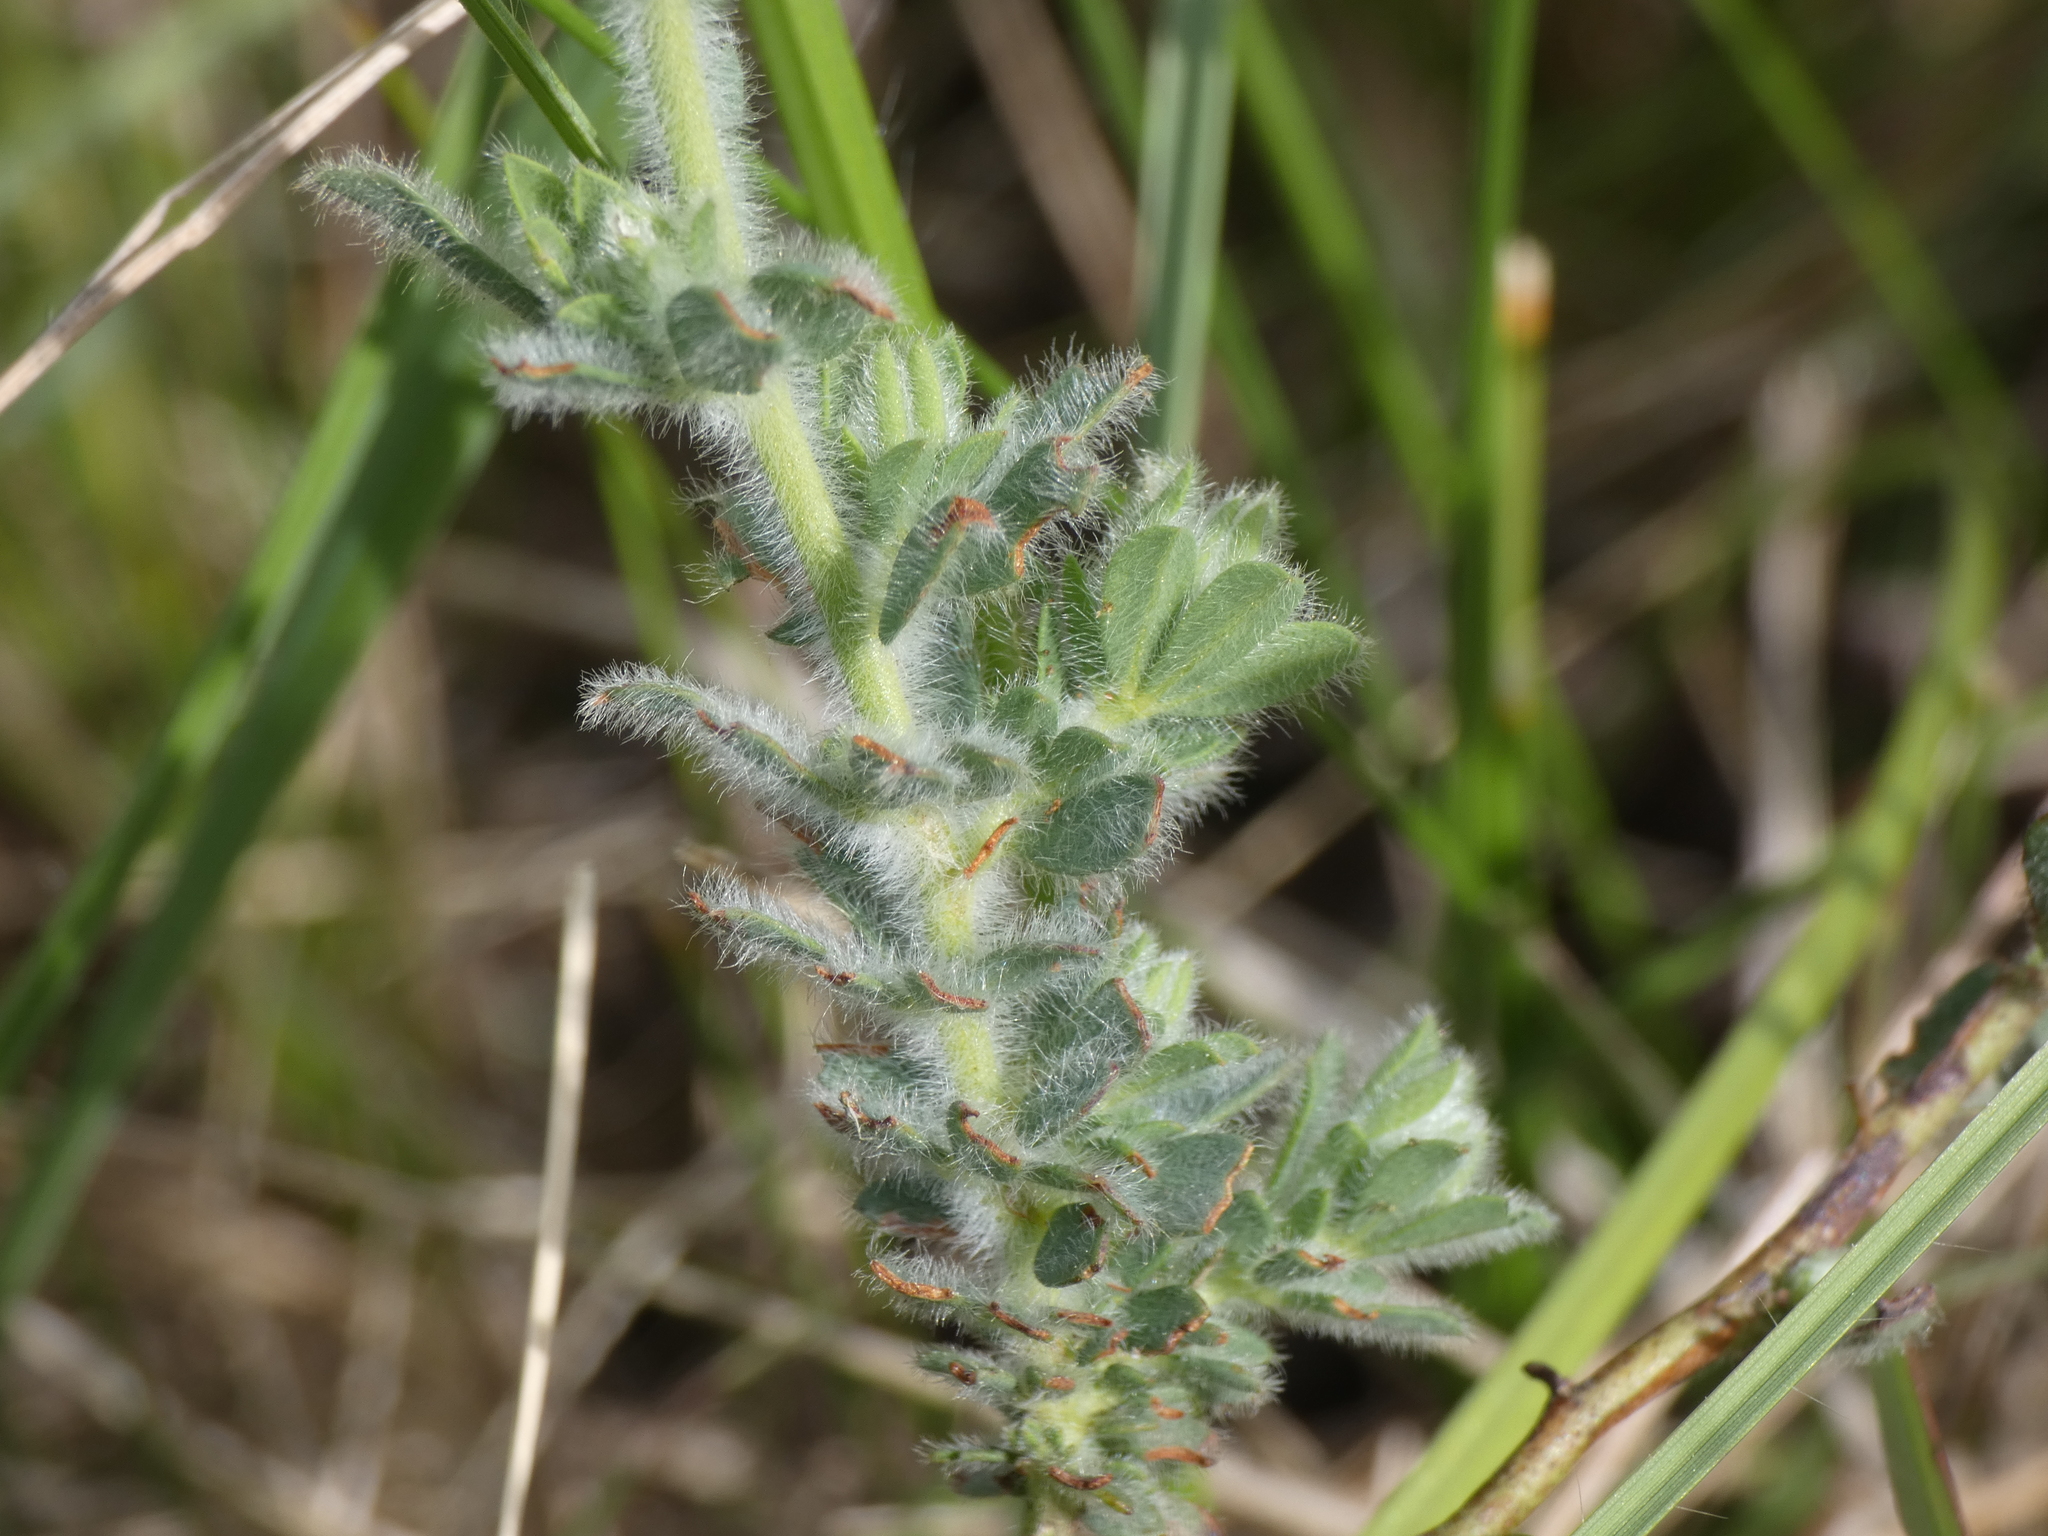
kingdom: Plantae
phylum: Tracheophyta
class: Magnoliopsida
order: Fabales
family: Fabaceae
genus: Lotus
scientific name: Lotus hirsutus
